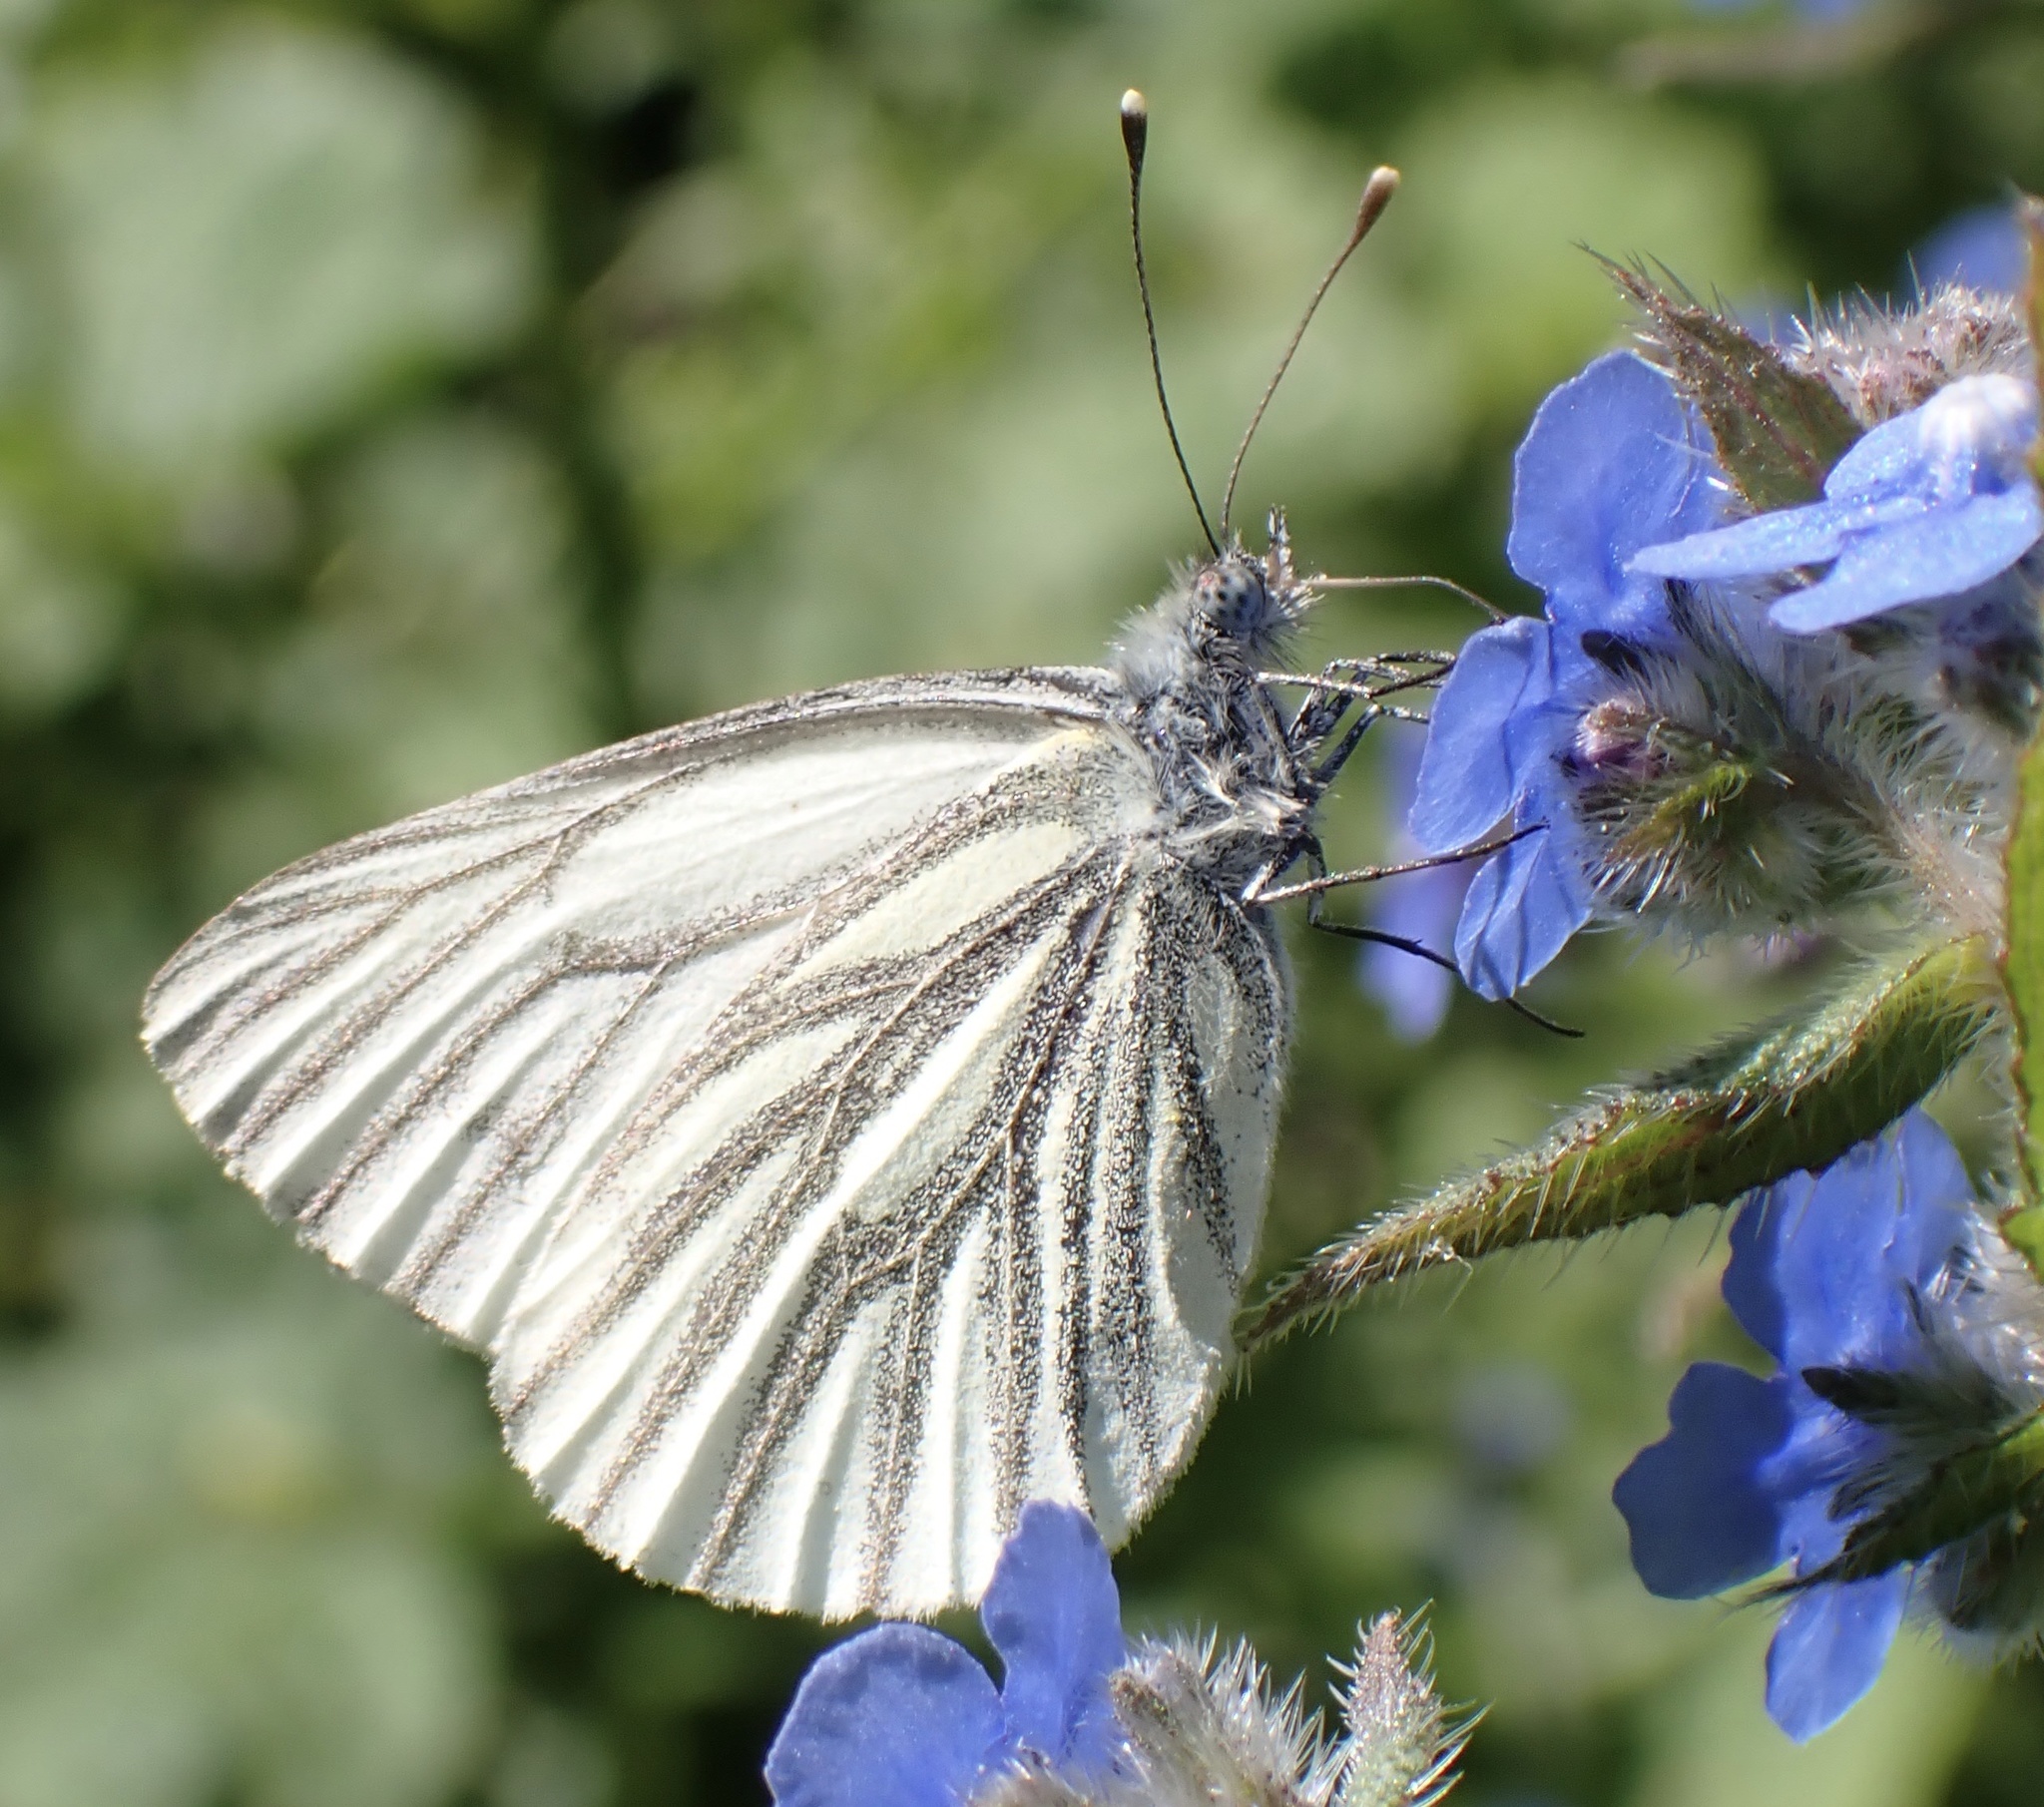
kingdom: Animalia
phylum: Arthropoda
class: Insecta
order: Lepidoptera
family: Pieridae
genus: Pieris
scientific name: Pieris napi
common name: Green-veined white
